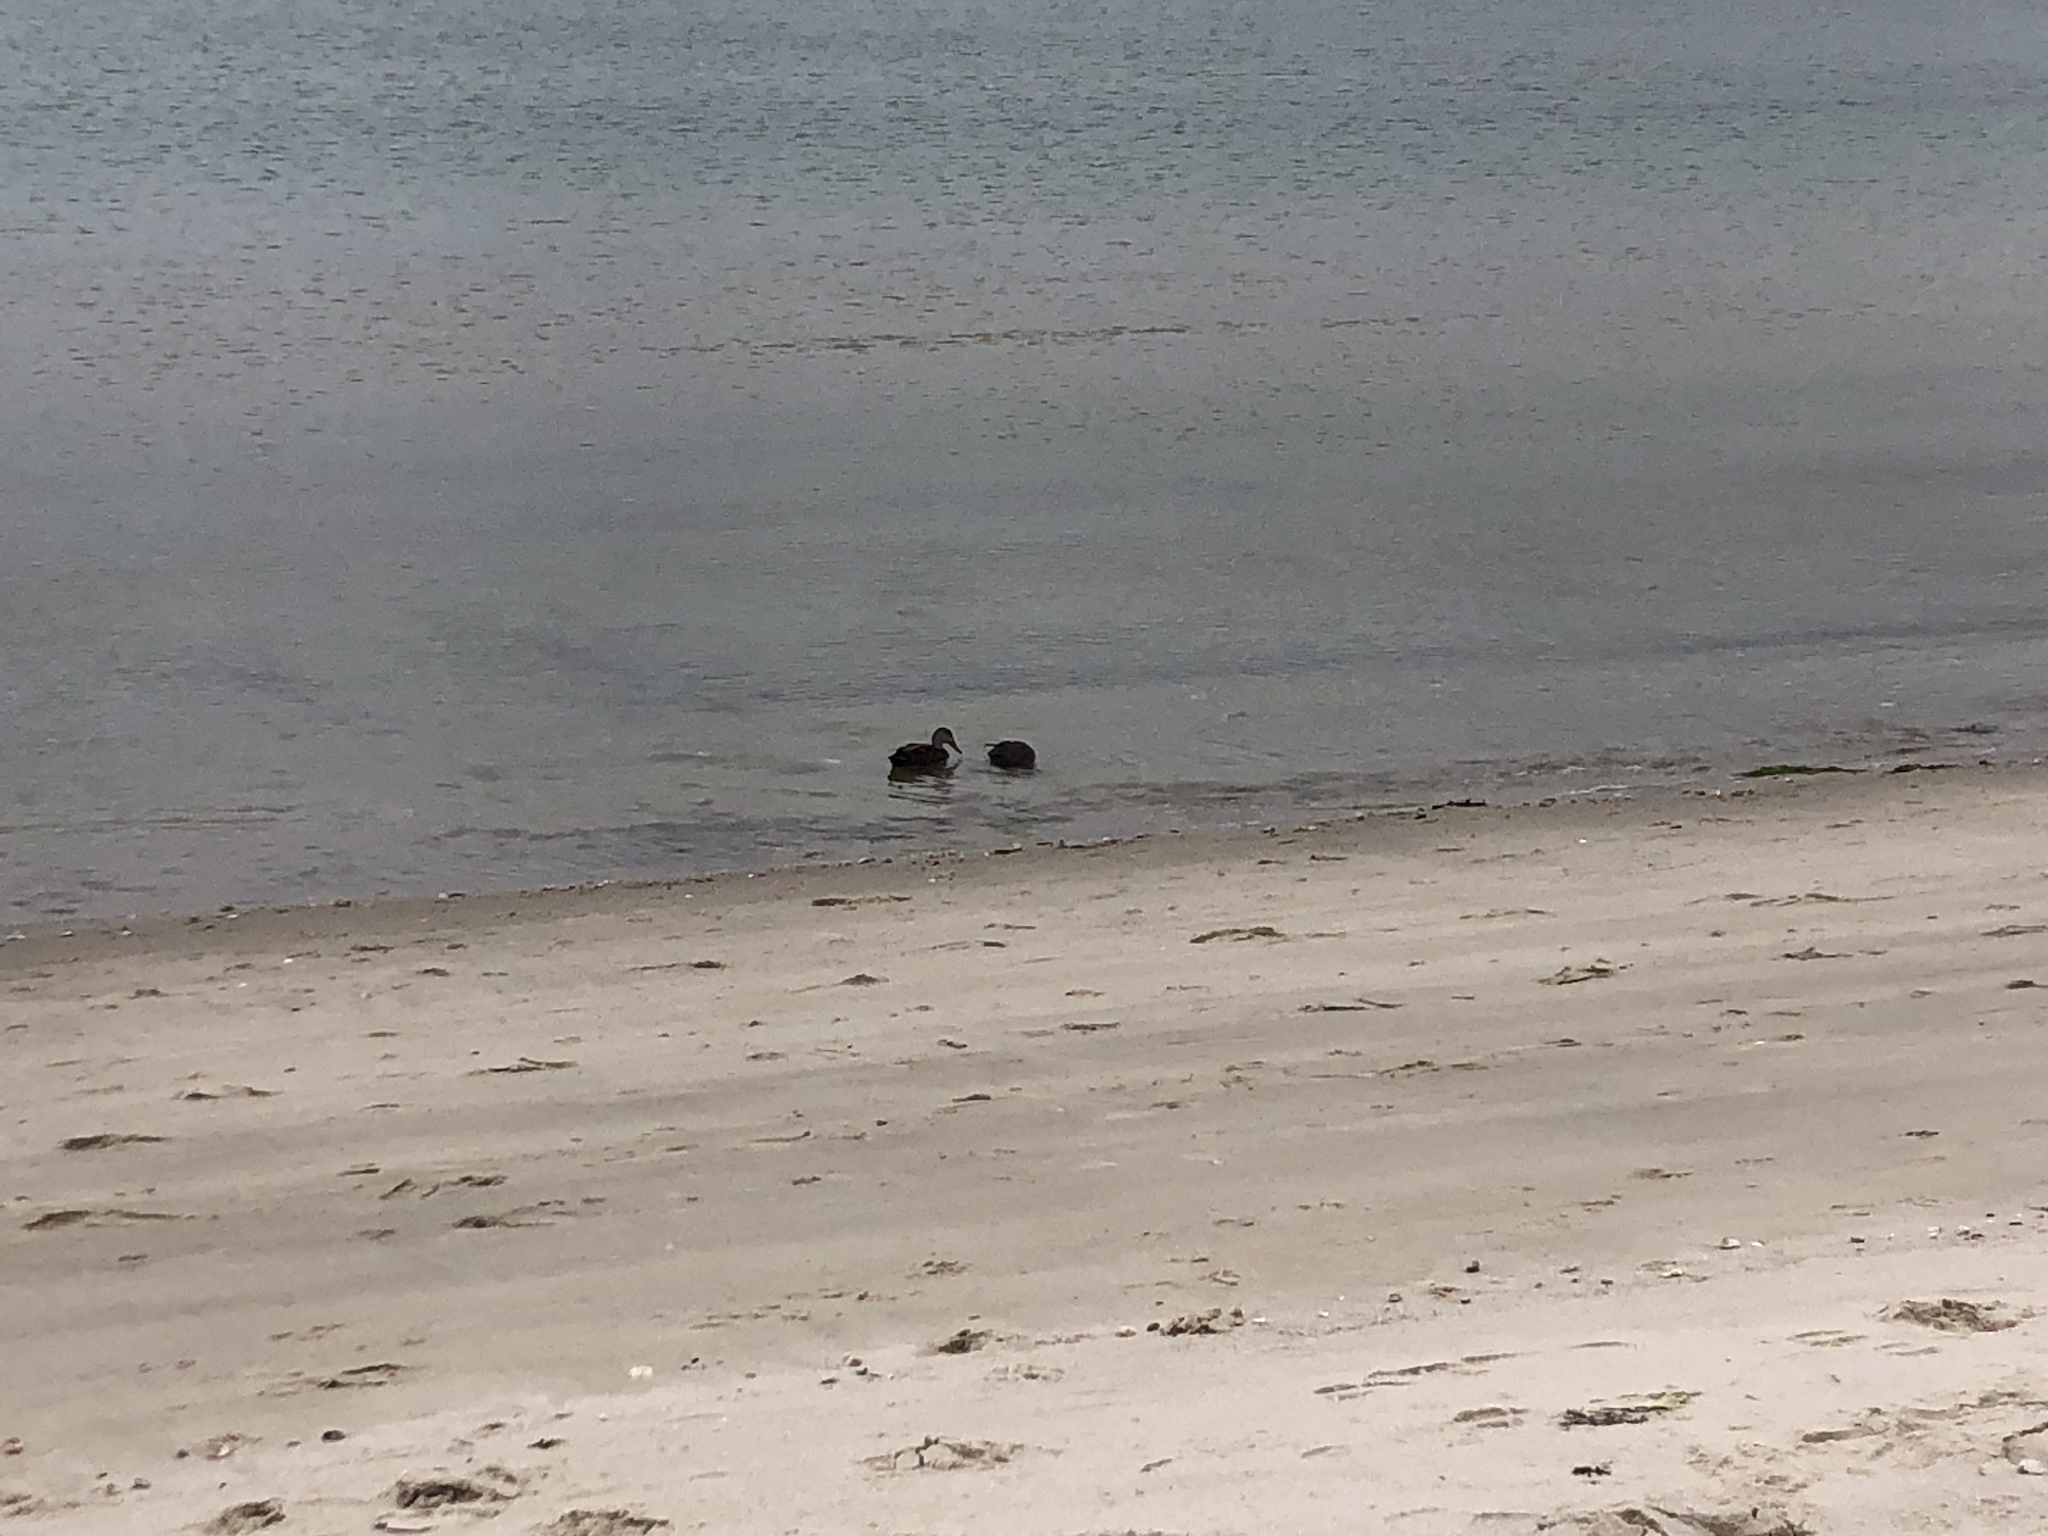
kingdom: Animalia
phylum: Chordata
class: Aves
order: Anseriformes
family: Anatidae
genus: Anas
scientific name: Anas rubripes
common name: American black duck
